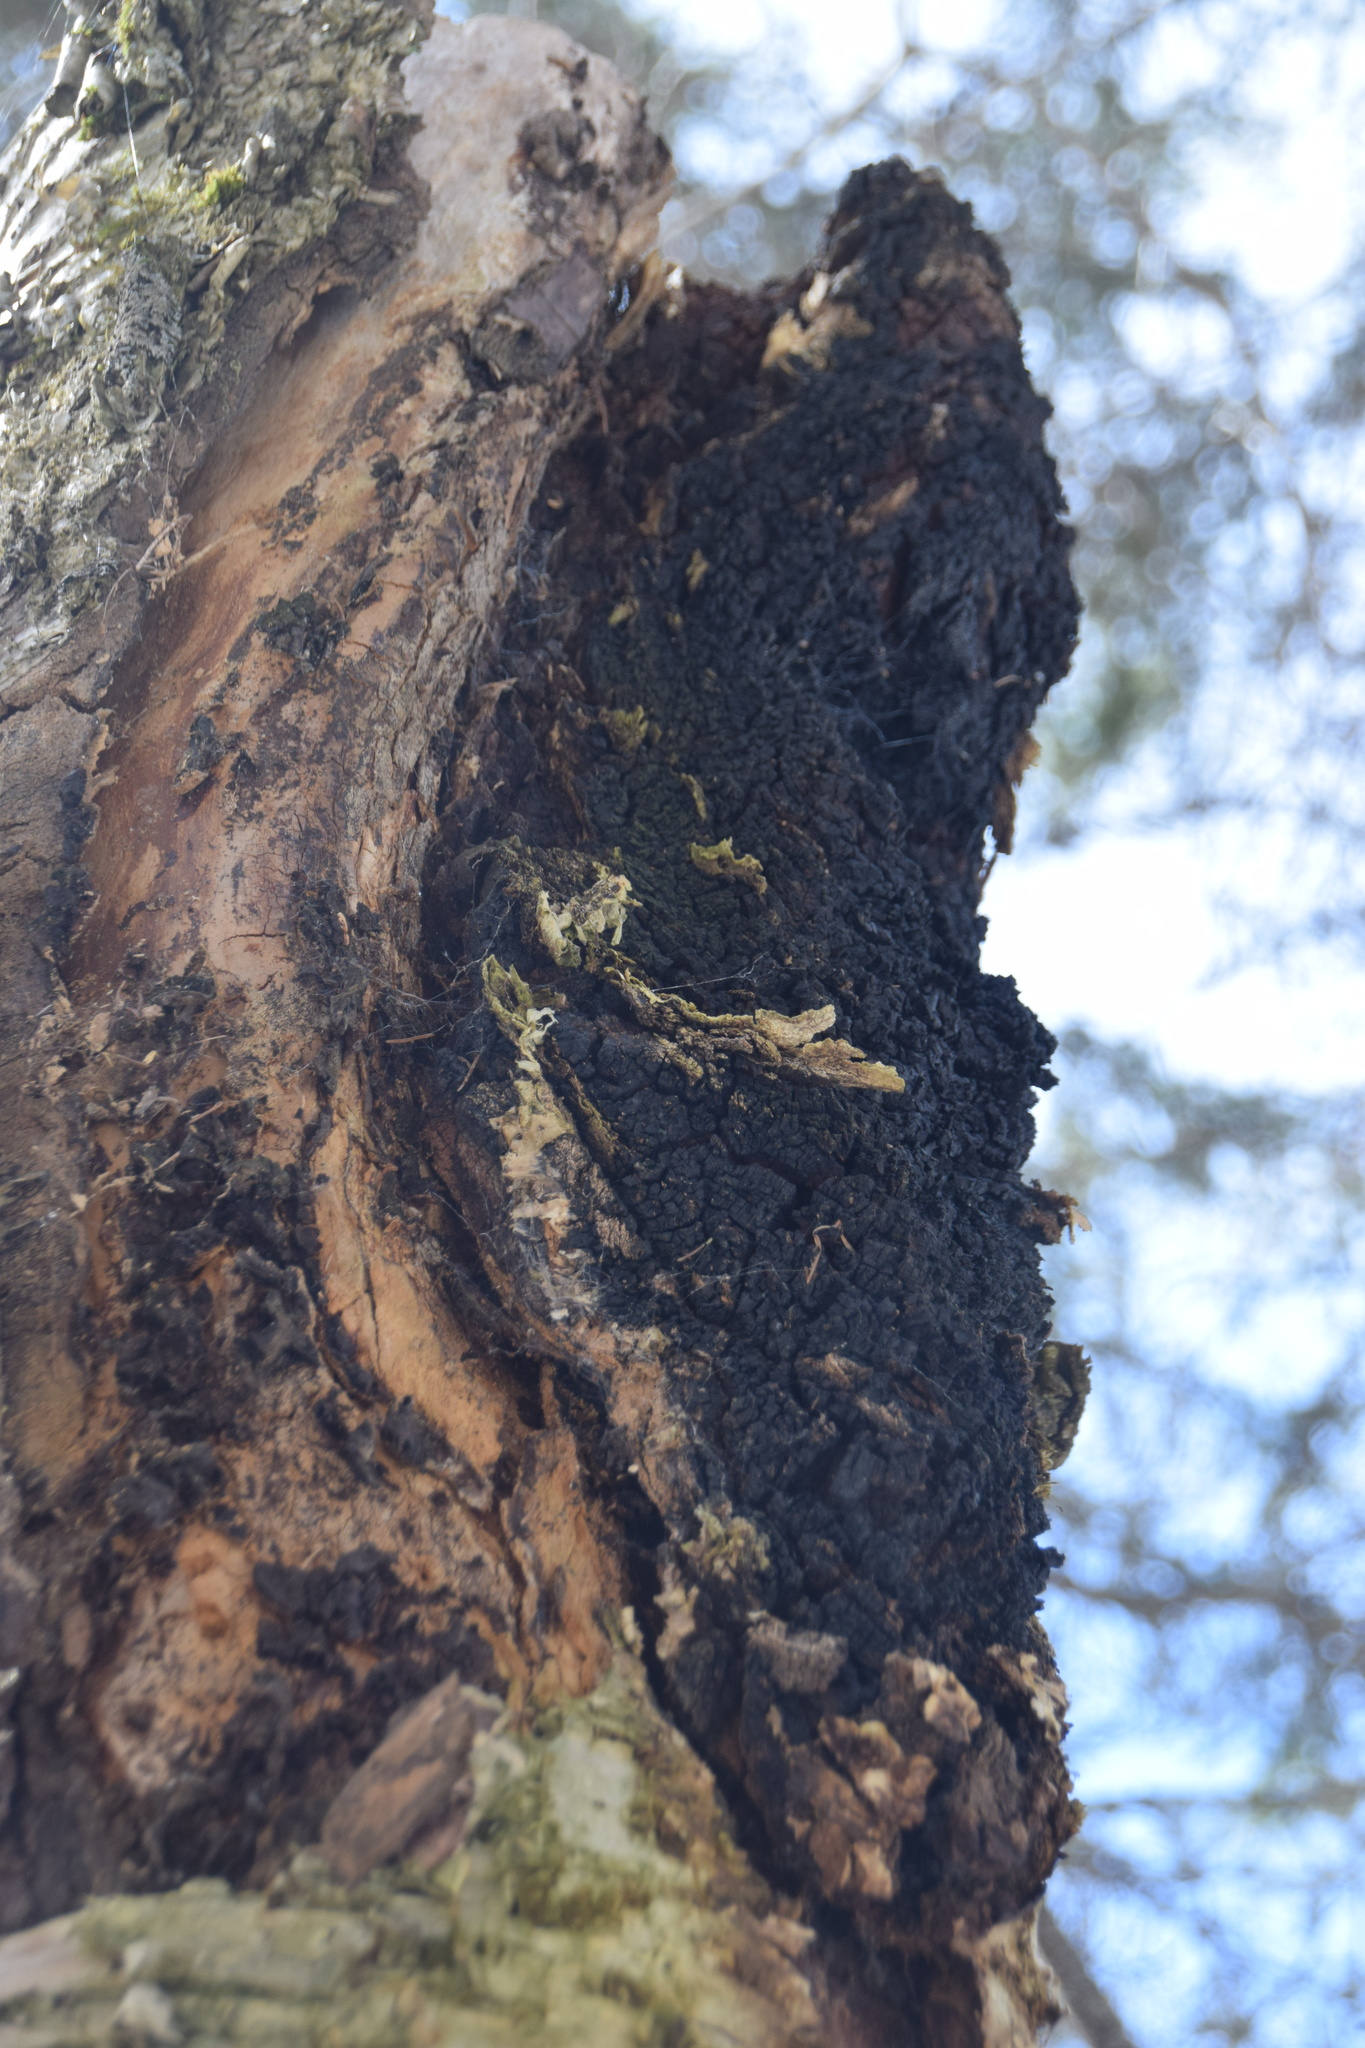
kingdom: Fungi
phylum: Basidiomycota
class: Agaricomycetes
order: Hymenochaetales
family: Hymenochaetaceae
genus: Inonotus
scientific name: Inonotus obliquus
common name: Chaga
